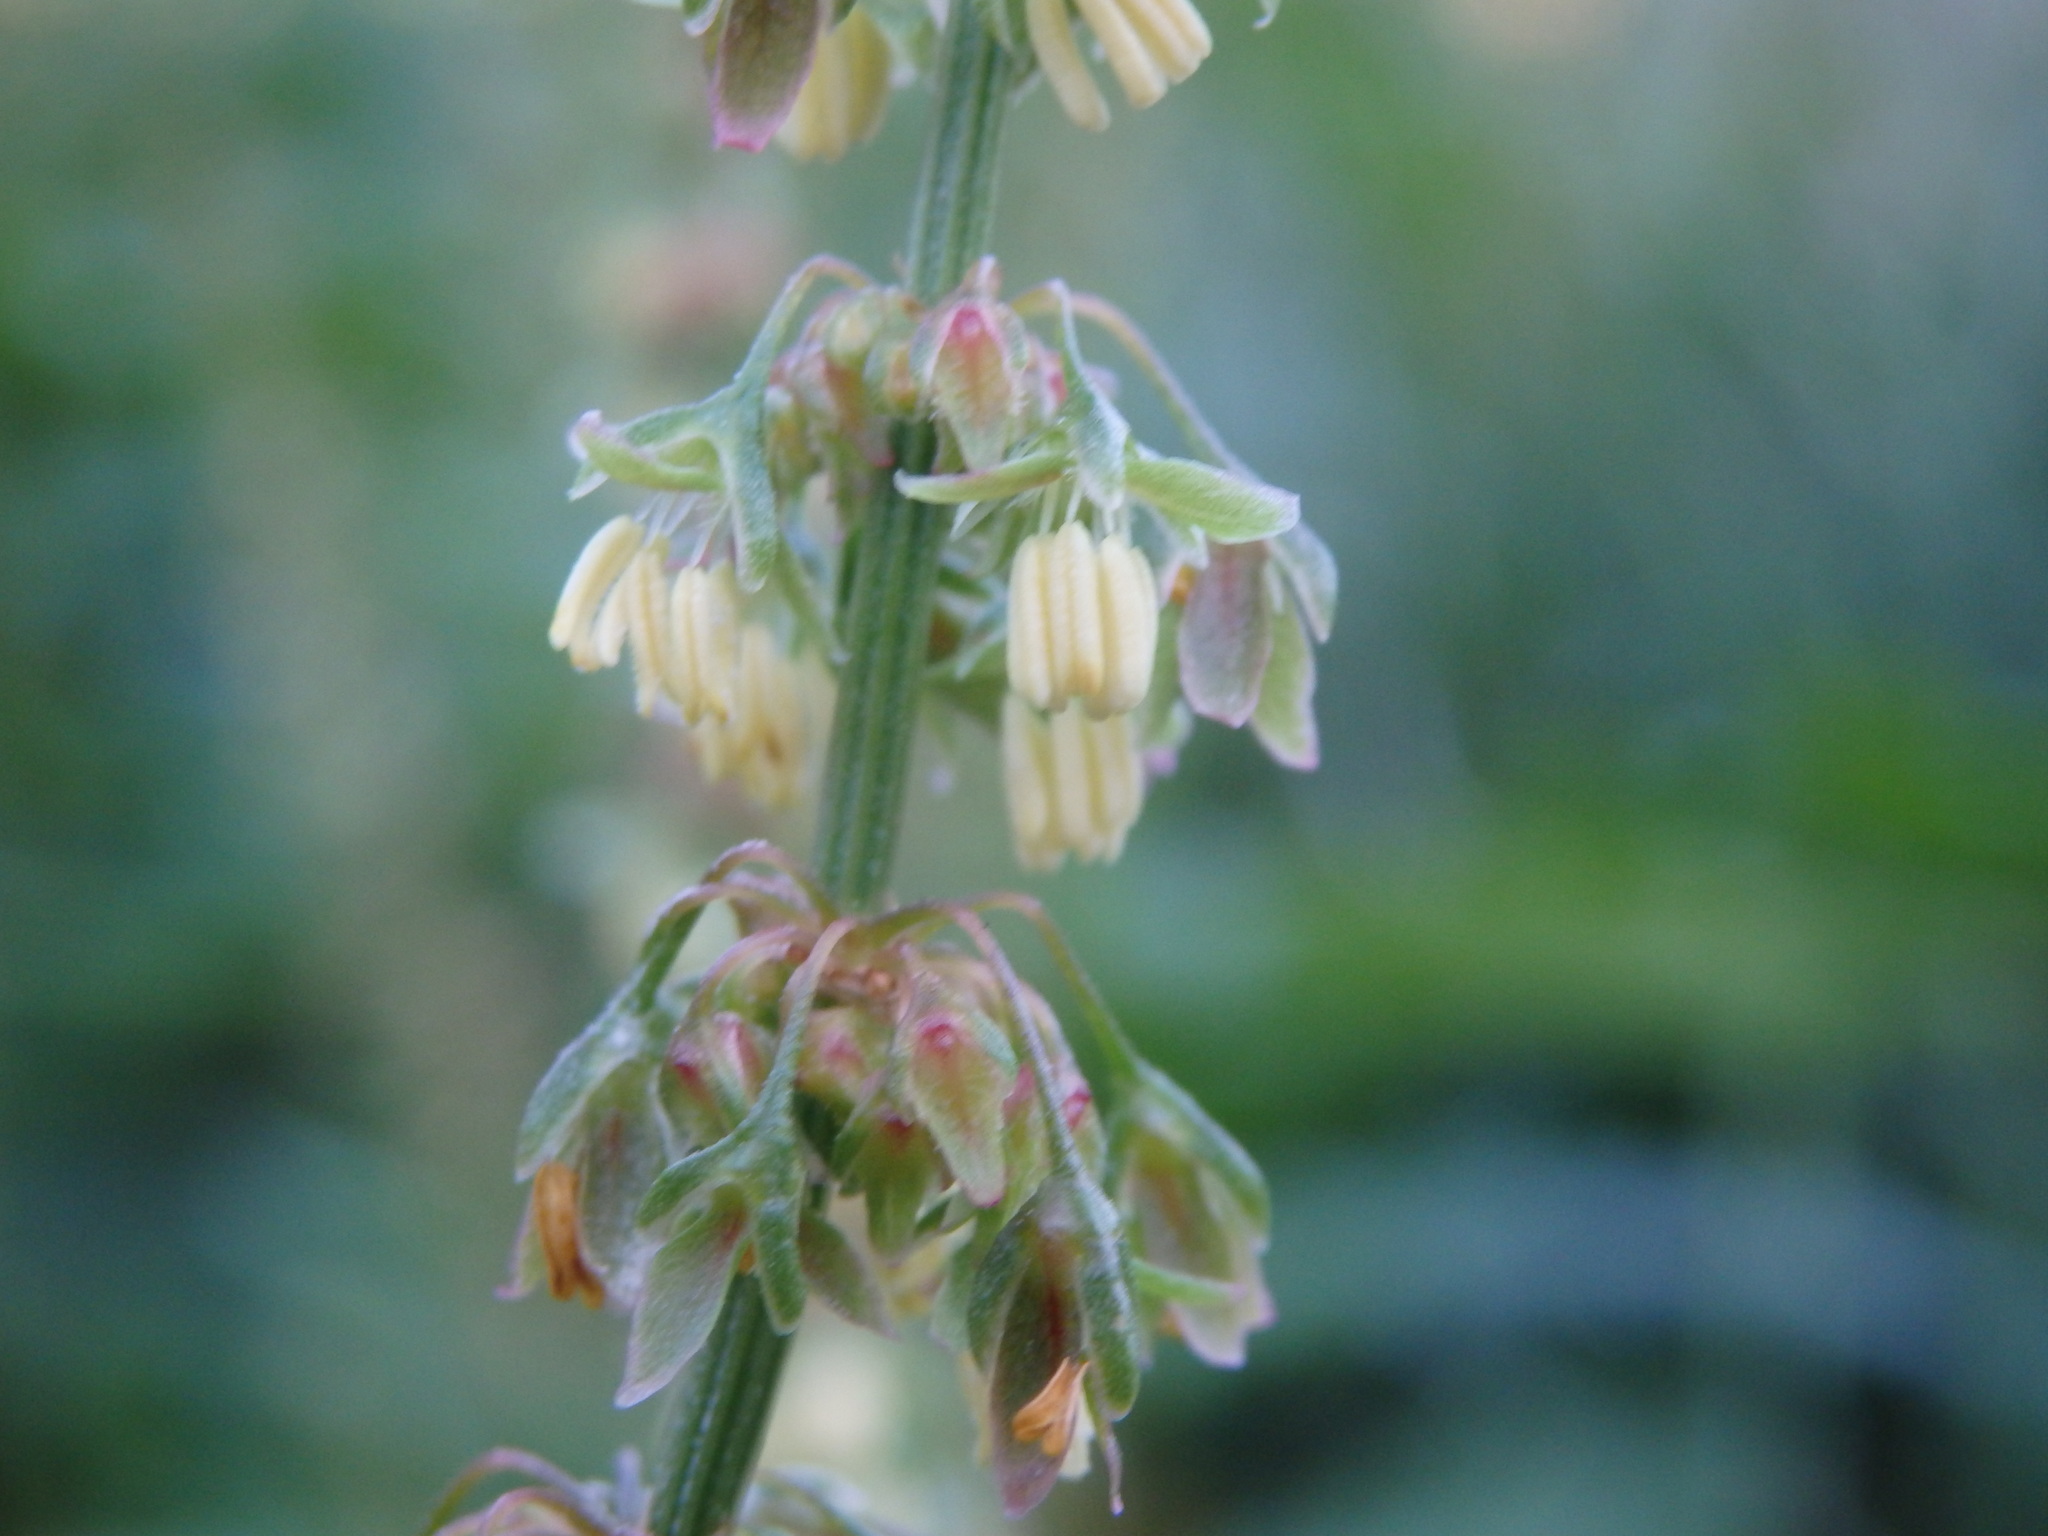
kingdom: Plantae
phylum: Tracheophyta
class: Magnoliopsida
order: Caryophyllales
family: Polygonaceae
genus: Rumex
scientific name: Rumex obtusifolius
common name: Bitter dock
